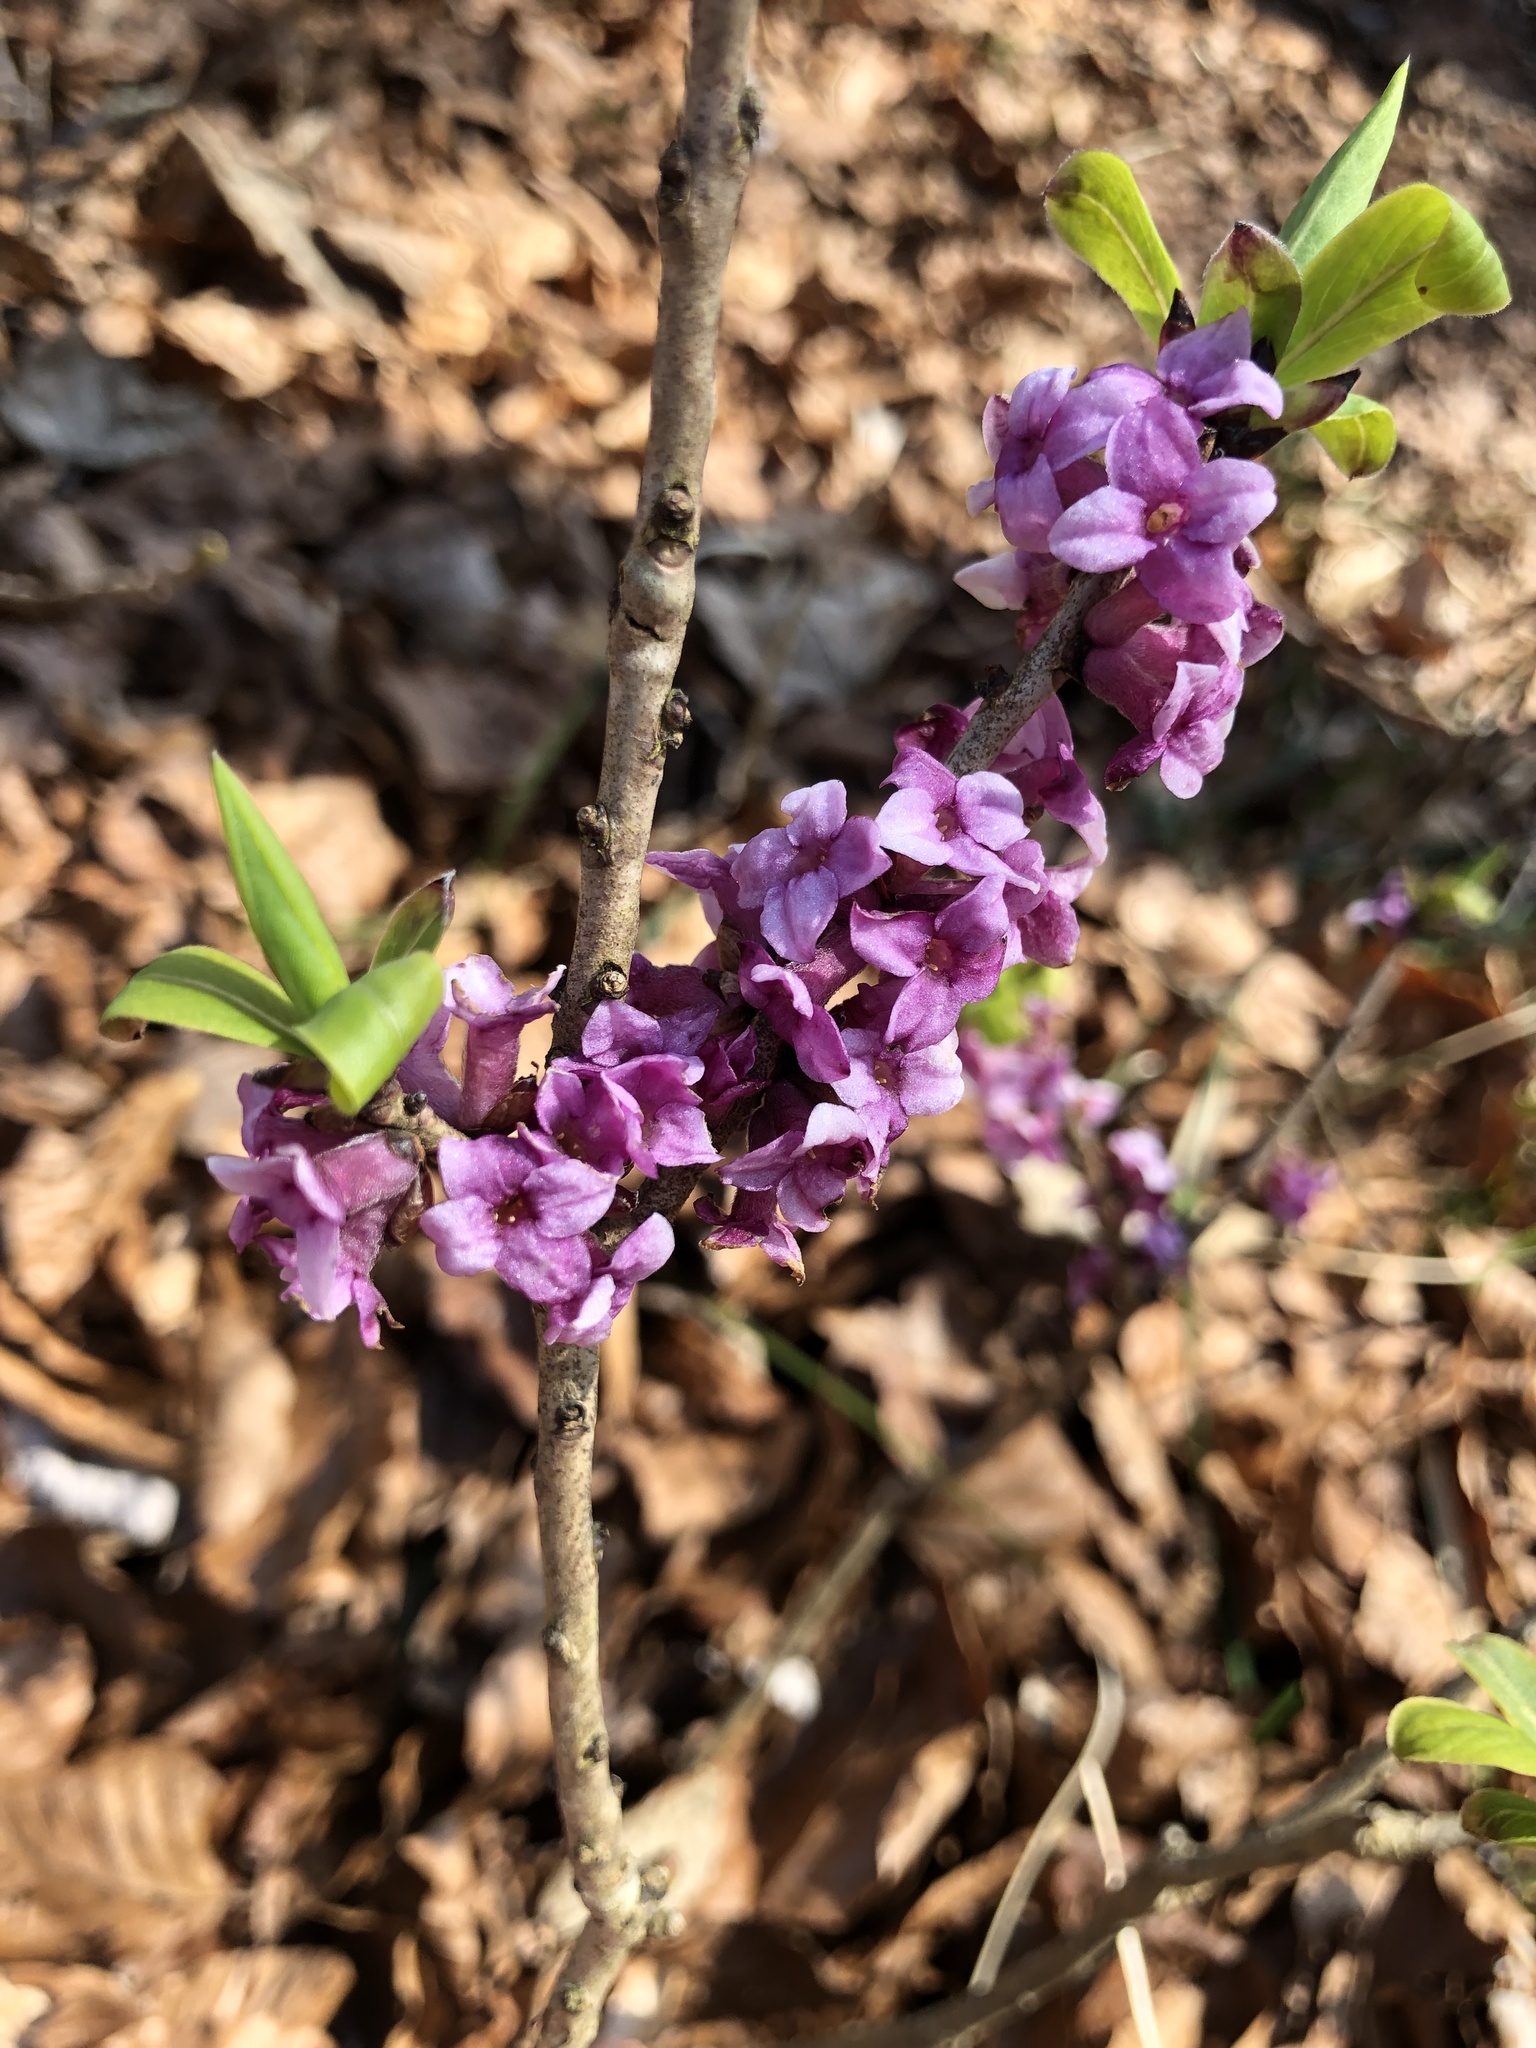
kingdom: Plantae
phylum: Tracheophyta
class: Magnoliopsida
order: Malvales
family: Thymelaeaceae
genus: Daphne
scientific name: Daphne mezereum
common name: Mezereon
